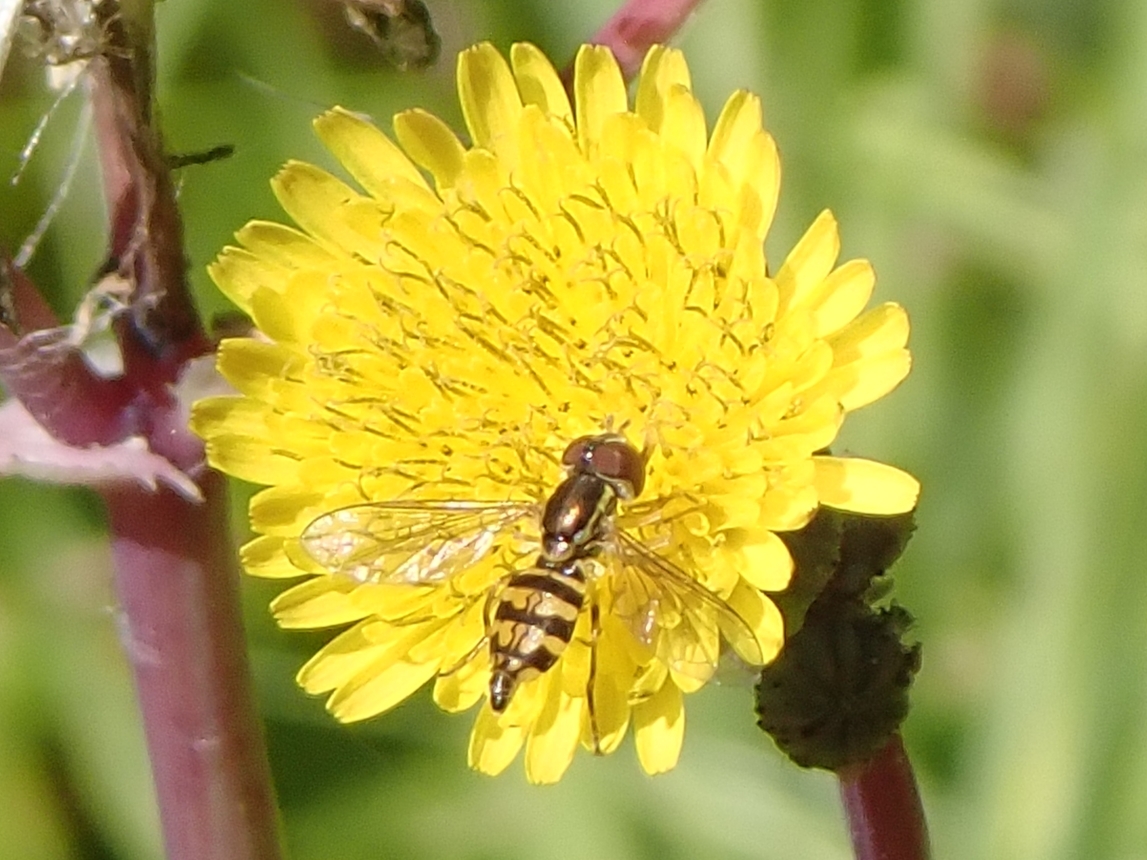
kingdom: Animalia
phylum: Arthropoda
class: Insecta
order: Diptera
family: Syrphidae
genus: Toxomerus
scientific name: Toxomerus occidentalis
